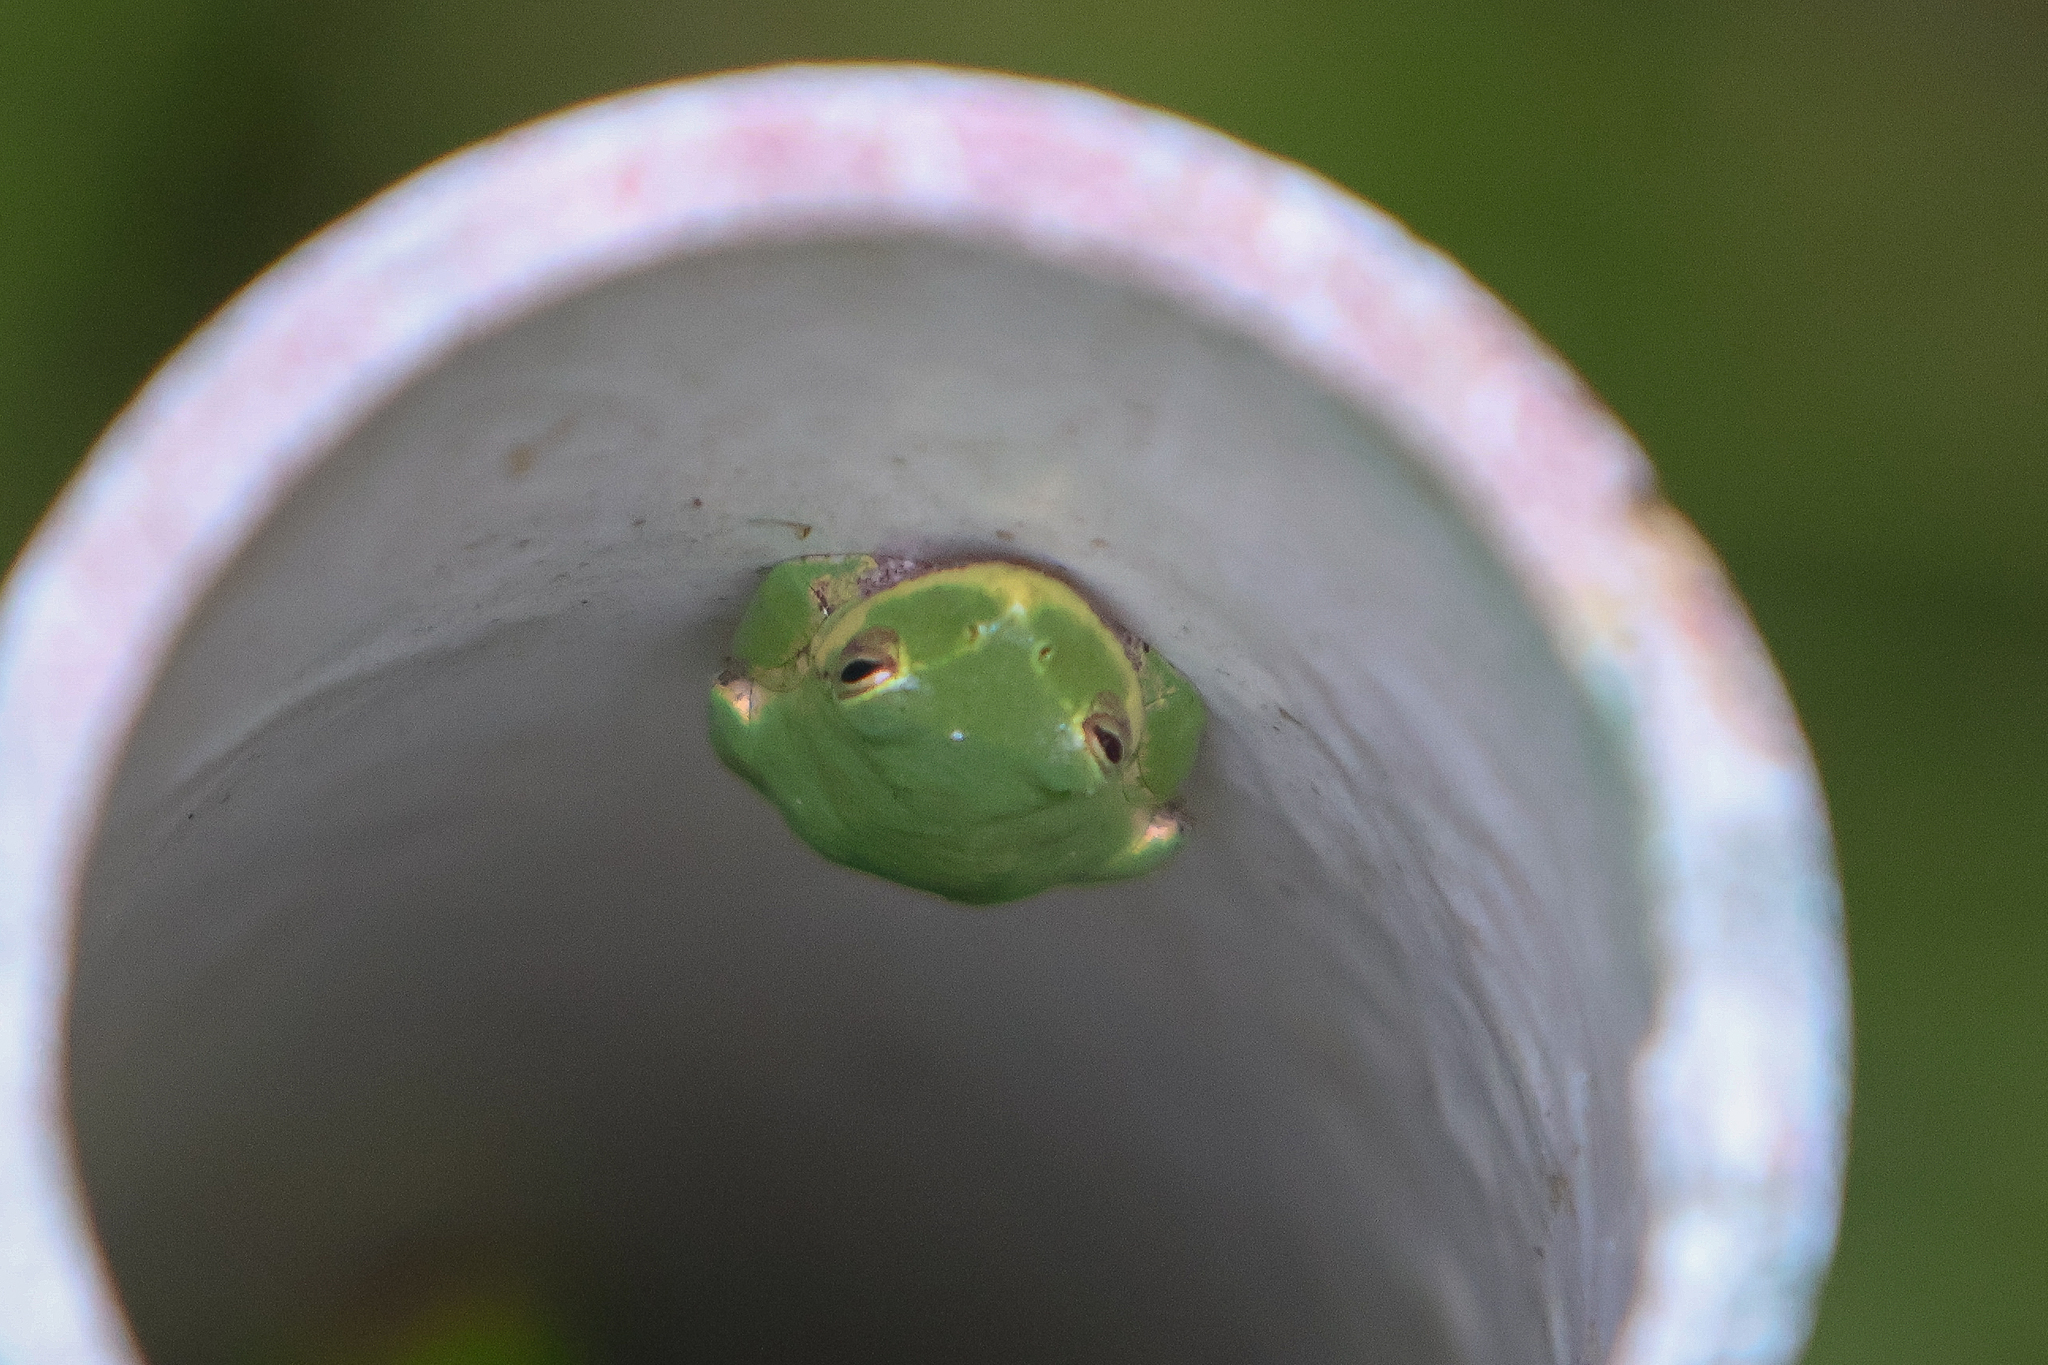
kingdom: Animalia
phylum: Chordata
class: Amphibia
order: Anura
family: Hylidae
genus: Dryophytes
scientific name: Dryophytes squirellus
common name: Squirrel treefrog
